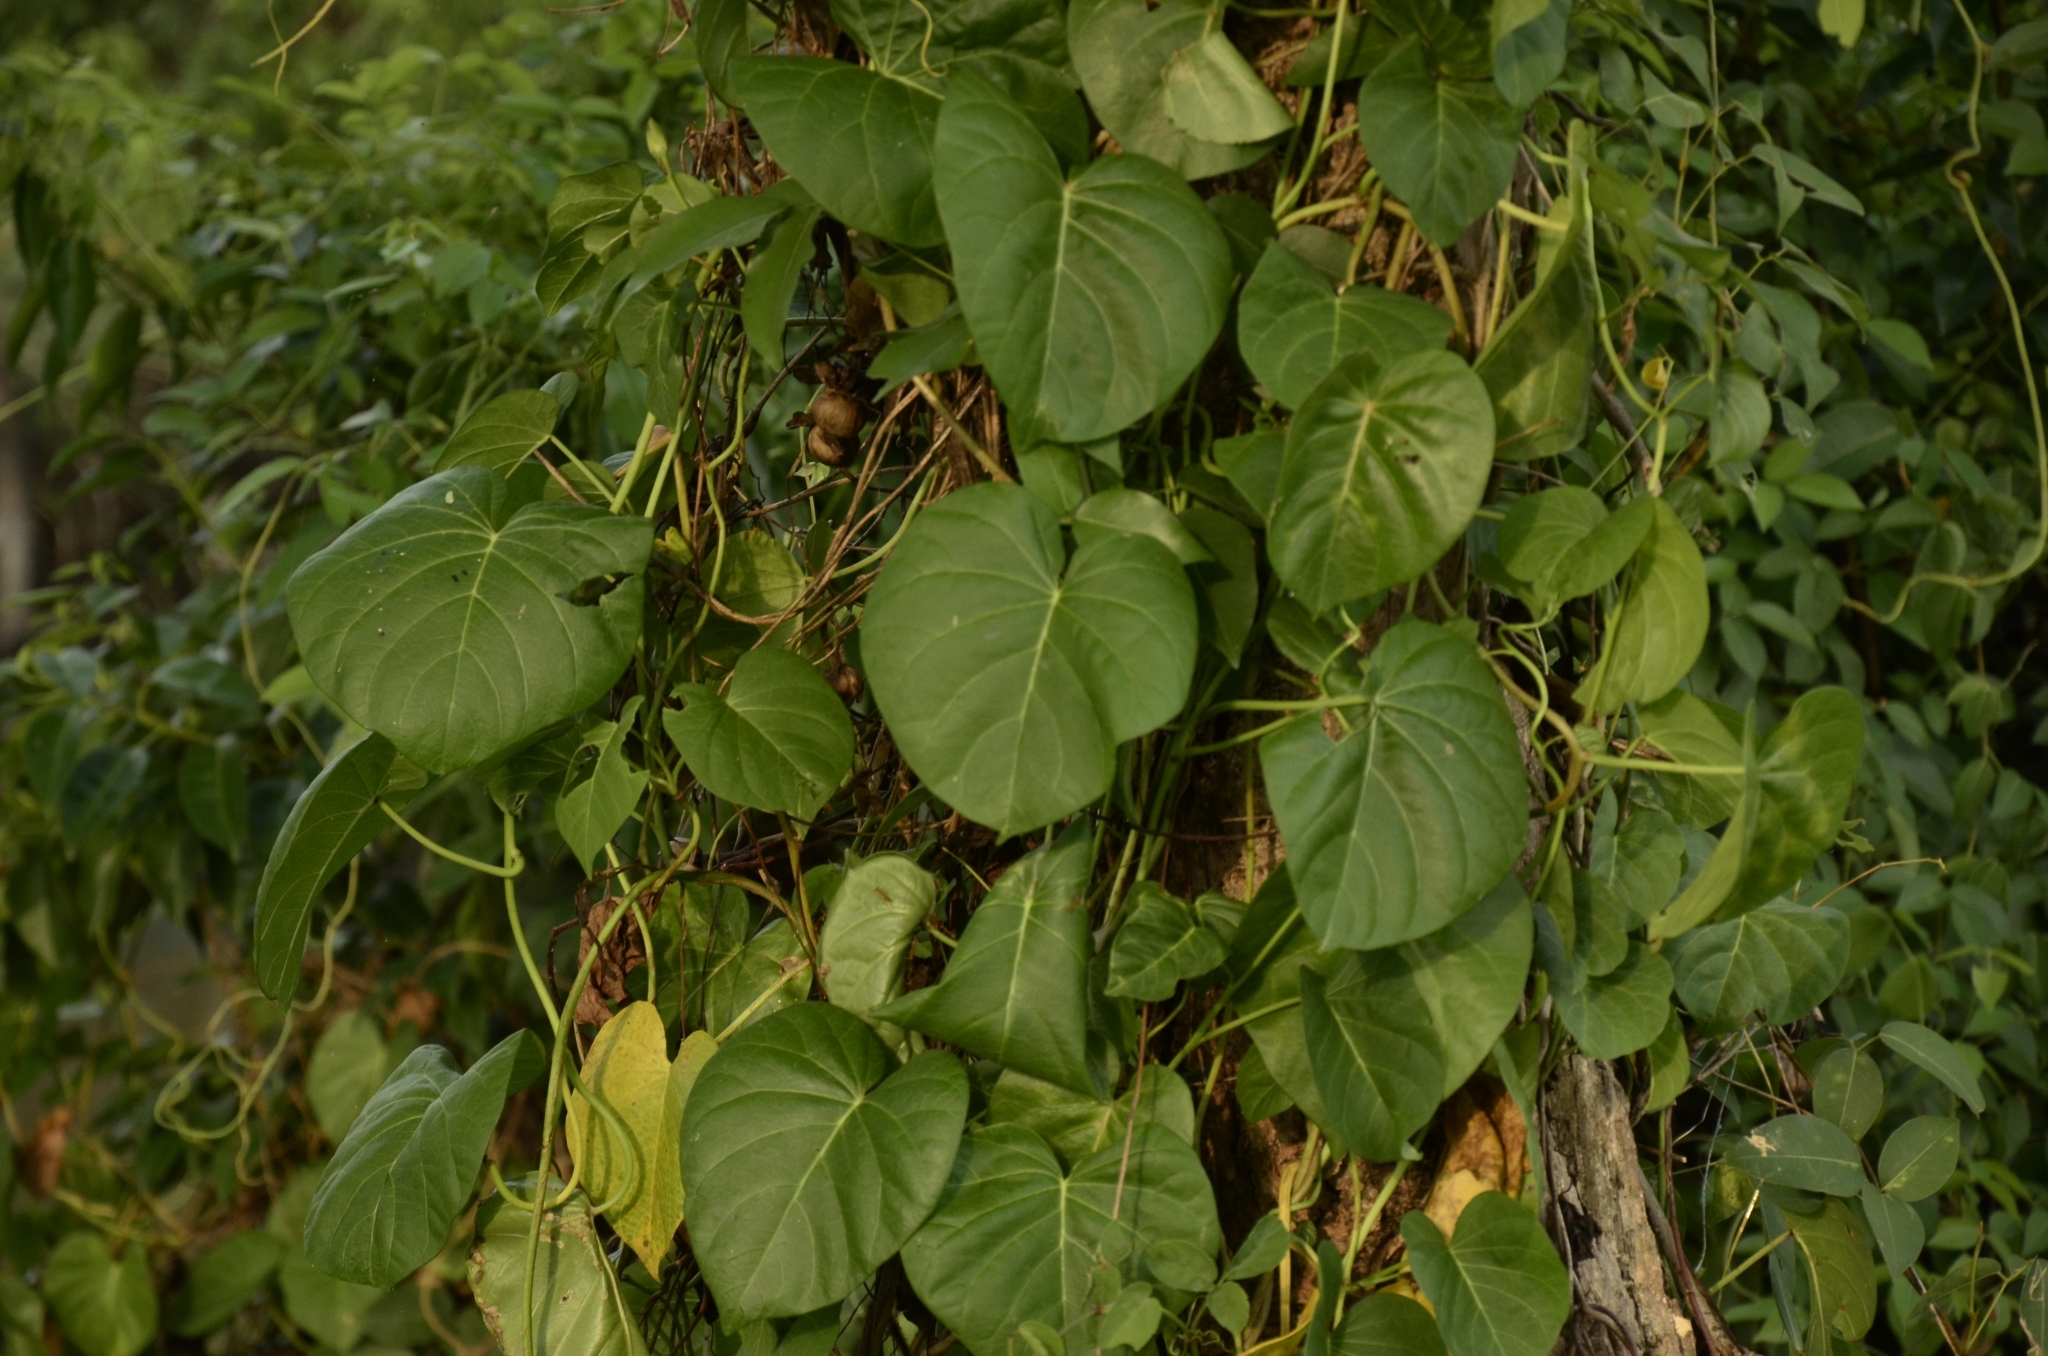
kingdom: Plantae
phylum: Tracheophyta
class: Magnoliopsida
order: Solanales
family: Convolvulaceae
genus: Ipomoea
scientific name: Ipomoea violacea
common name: Beach moonflower
